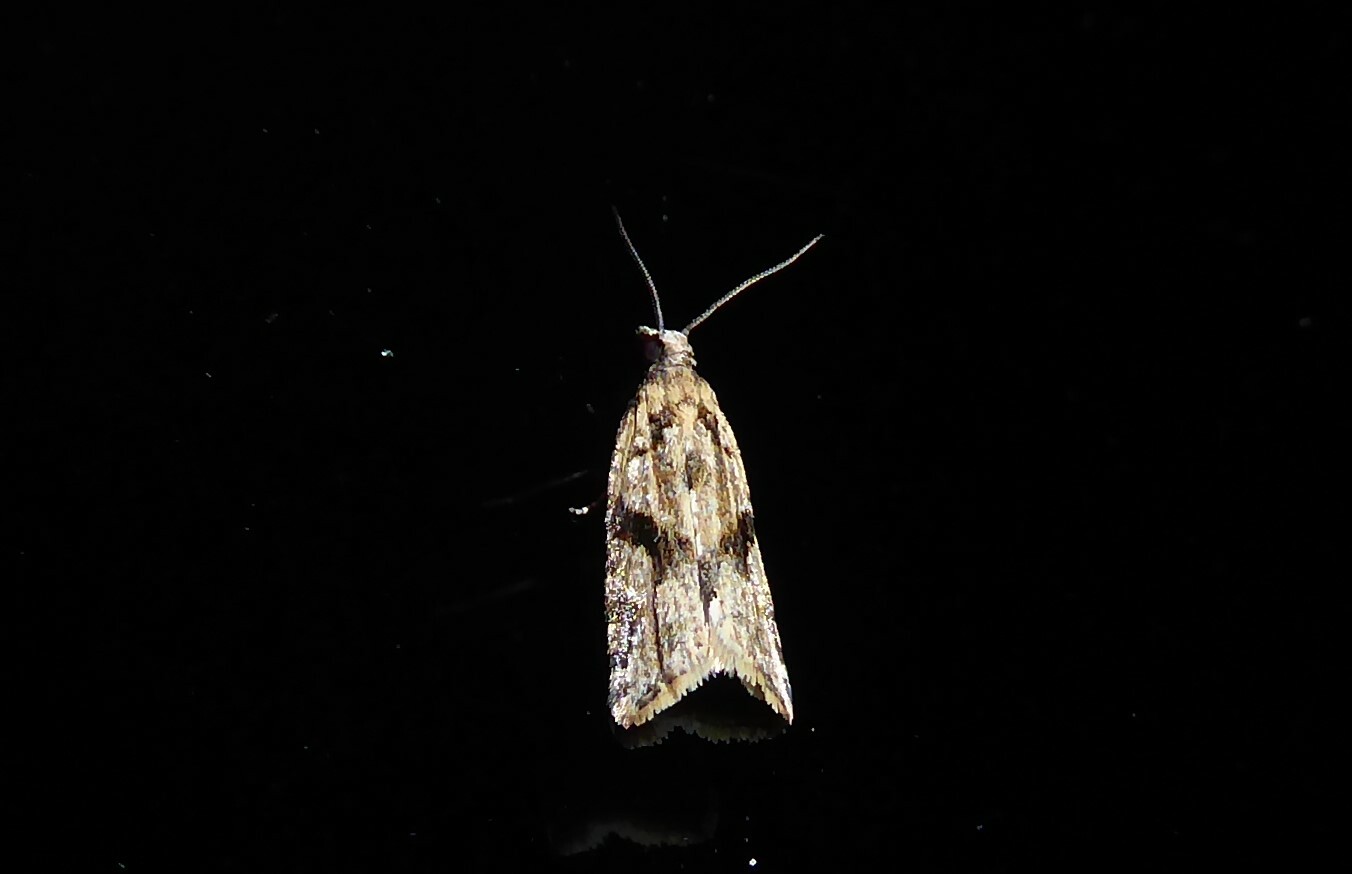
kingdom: Animalia
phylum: Arthropoda
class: Insecta
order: Lepidoptera
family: Tortricidae
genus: Capua
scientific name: Capua semiferana
